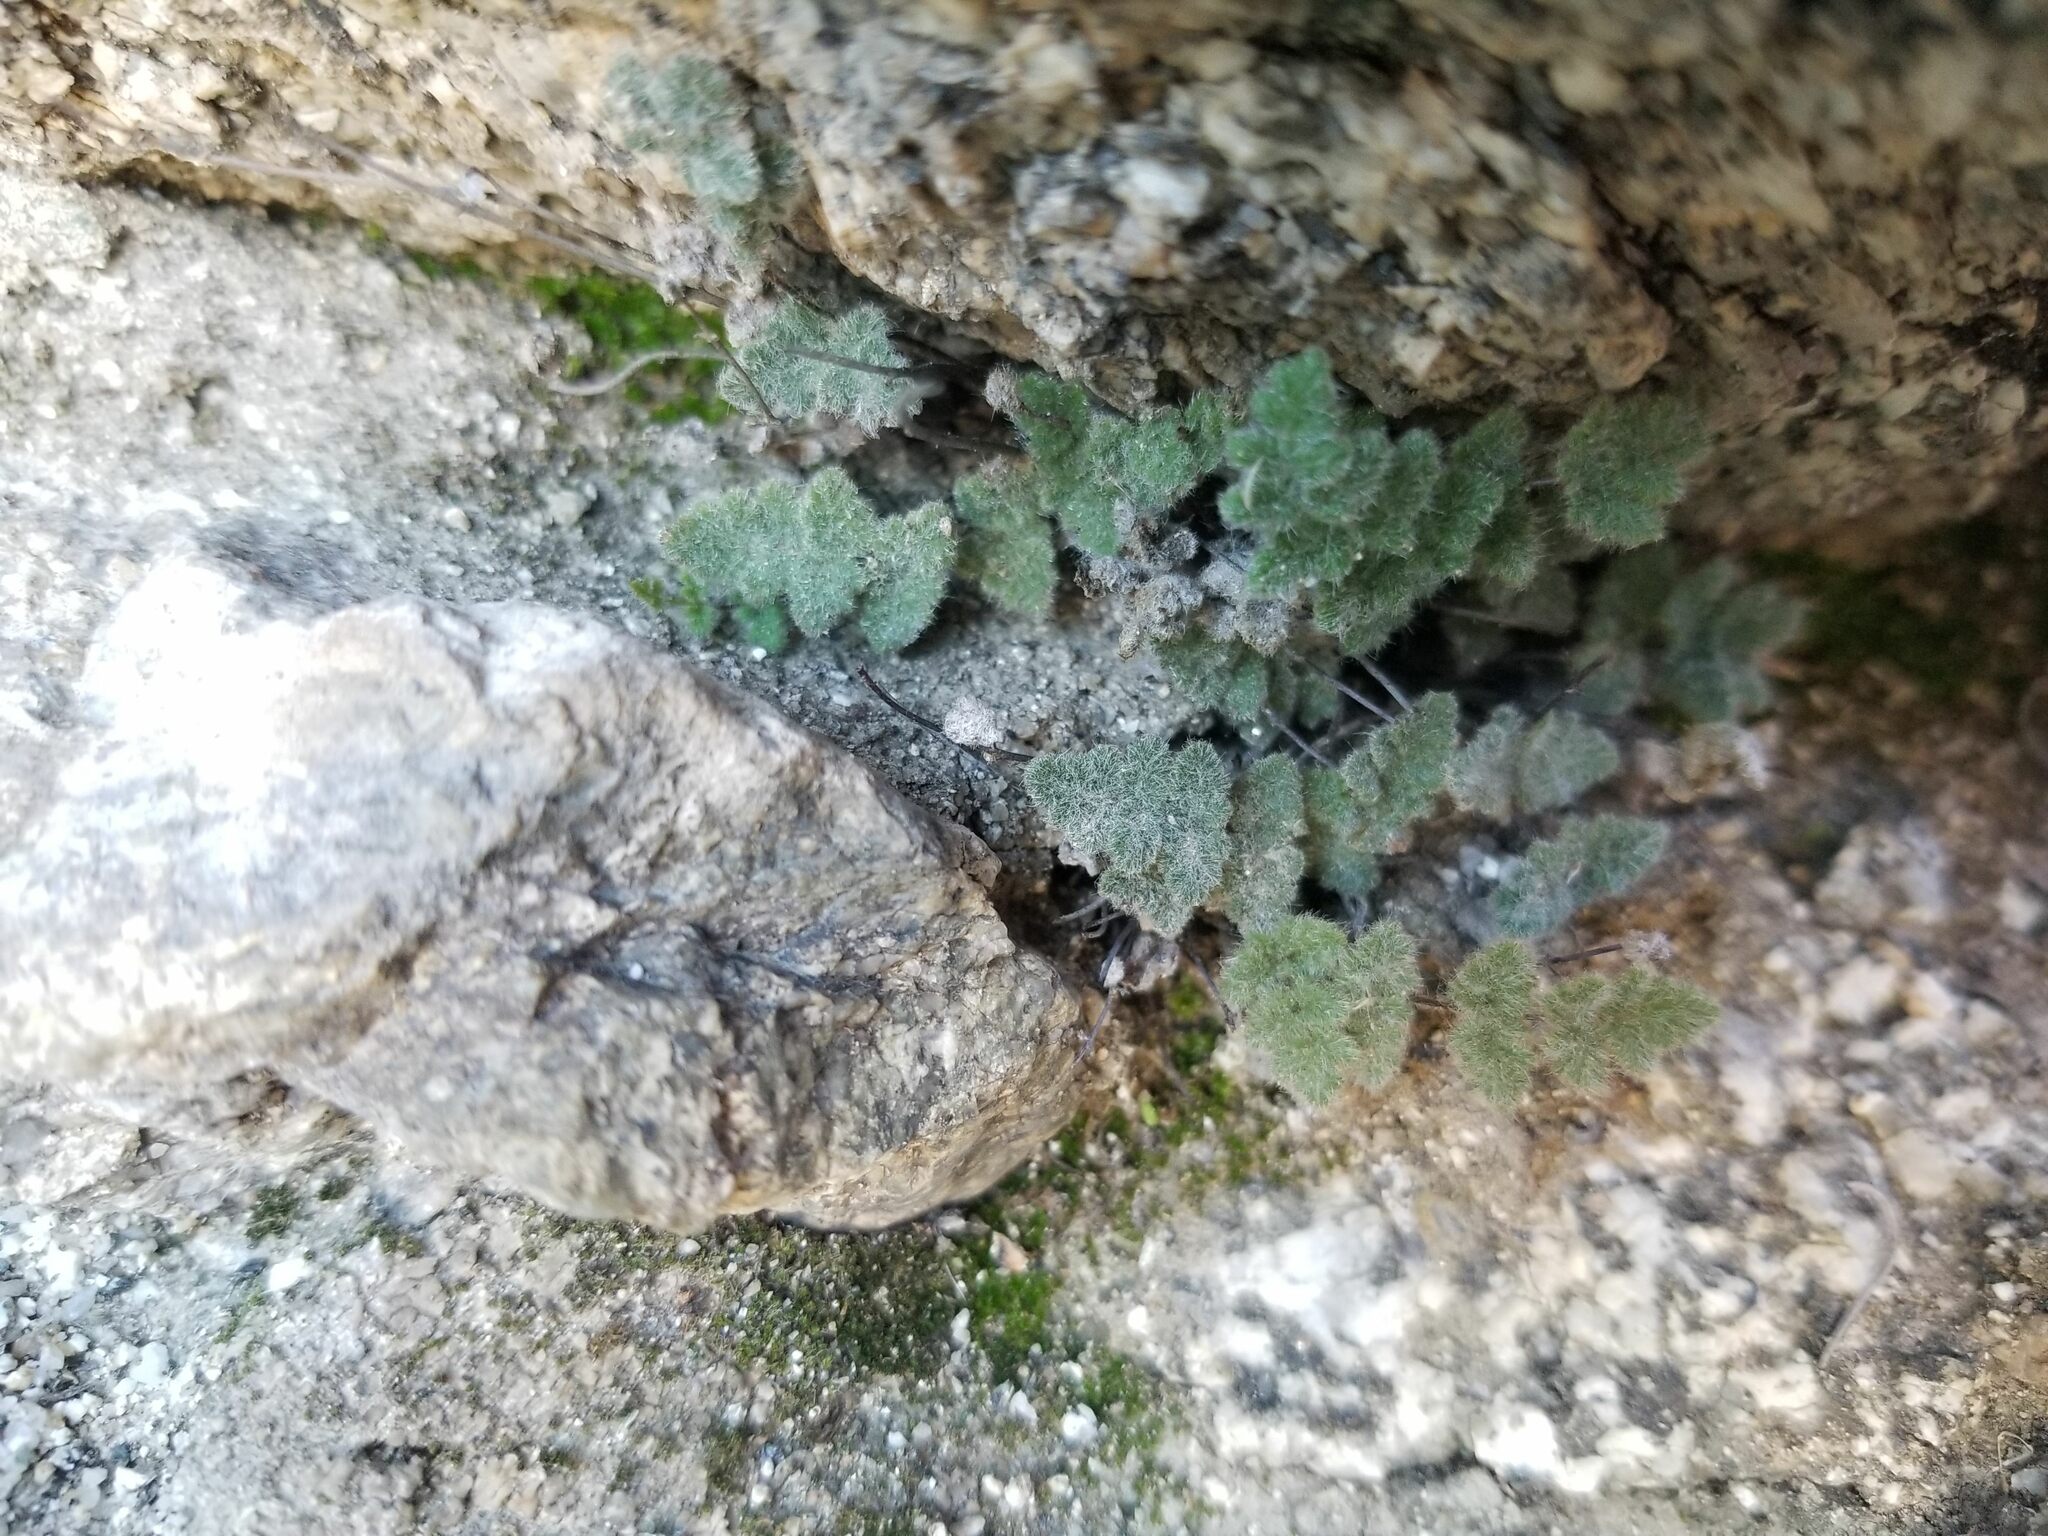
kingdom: Plantae
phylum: Tracheophyta
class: Polypodiopsida
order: Polypodiales
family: Pteridaceae
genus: Myriopteris
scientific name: Myriopteris parryi
